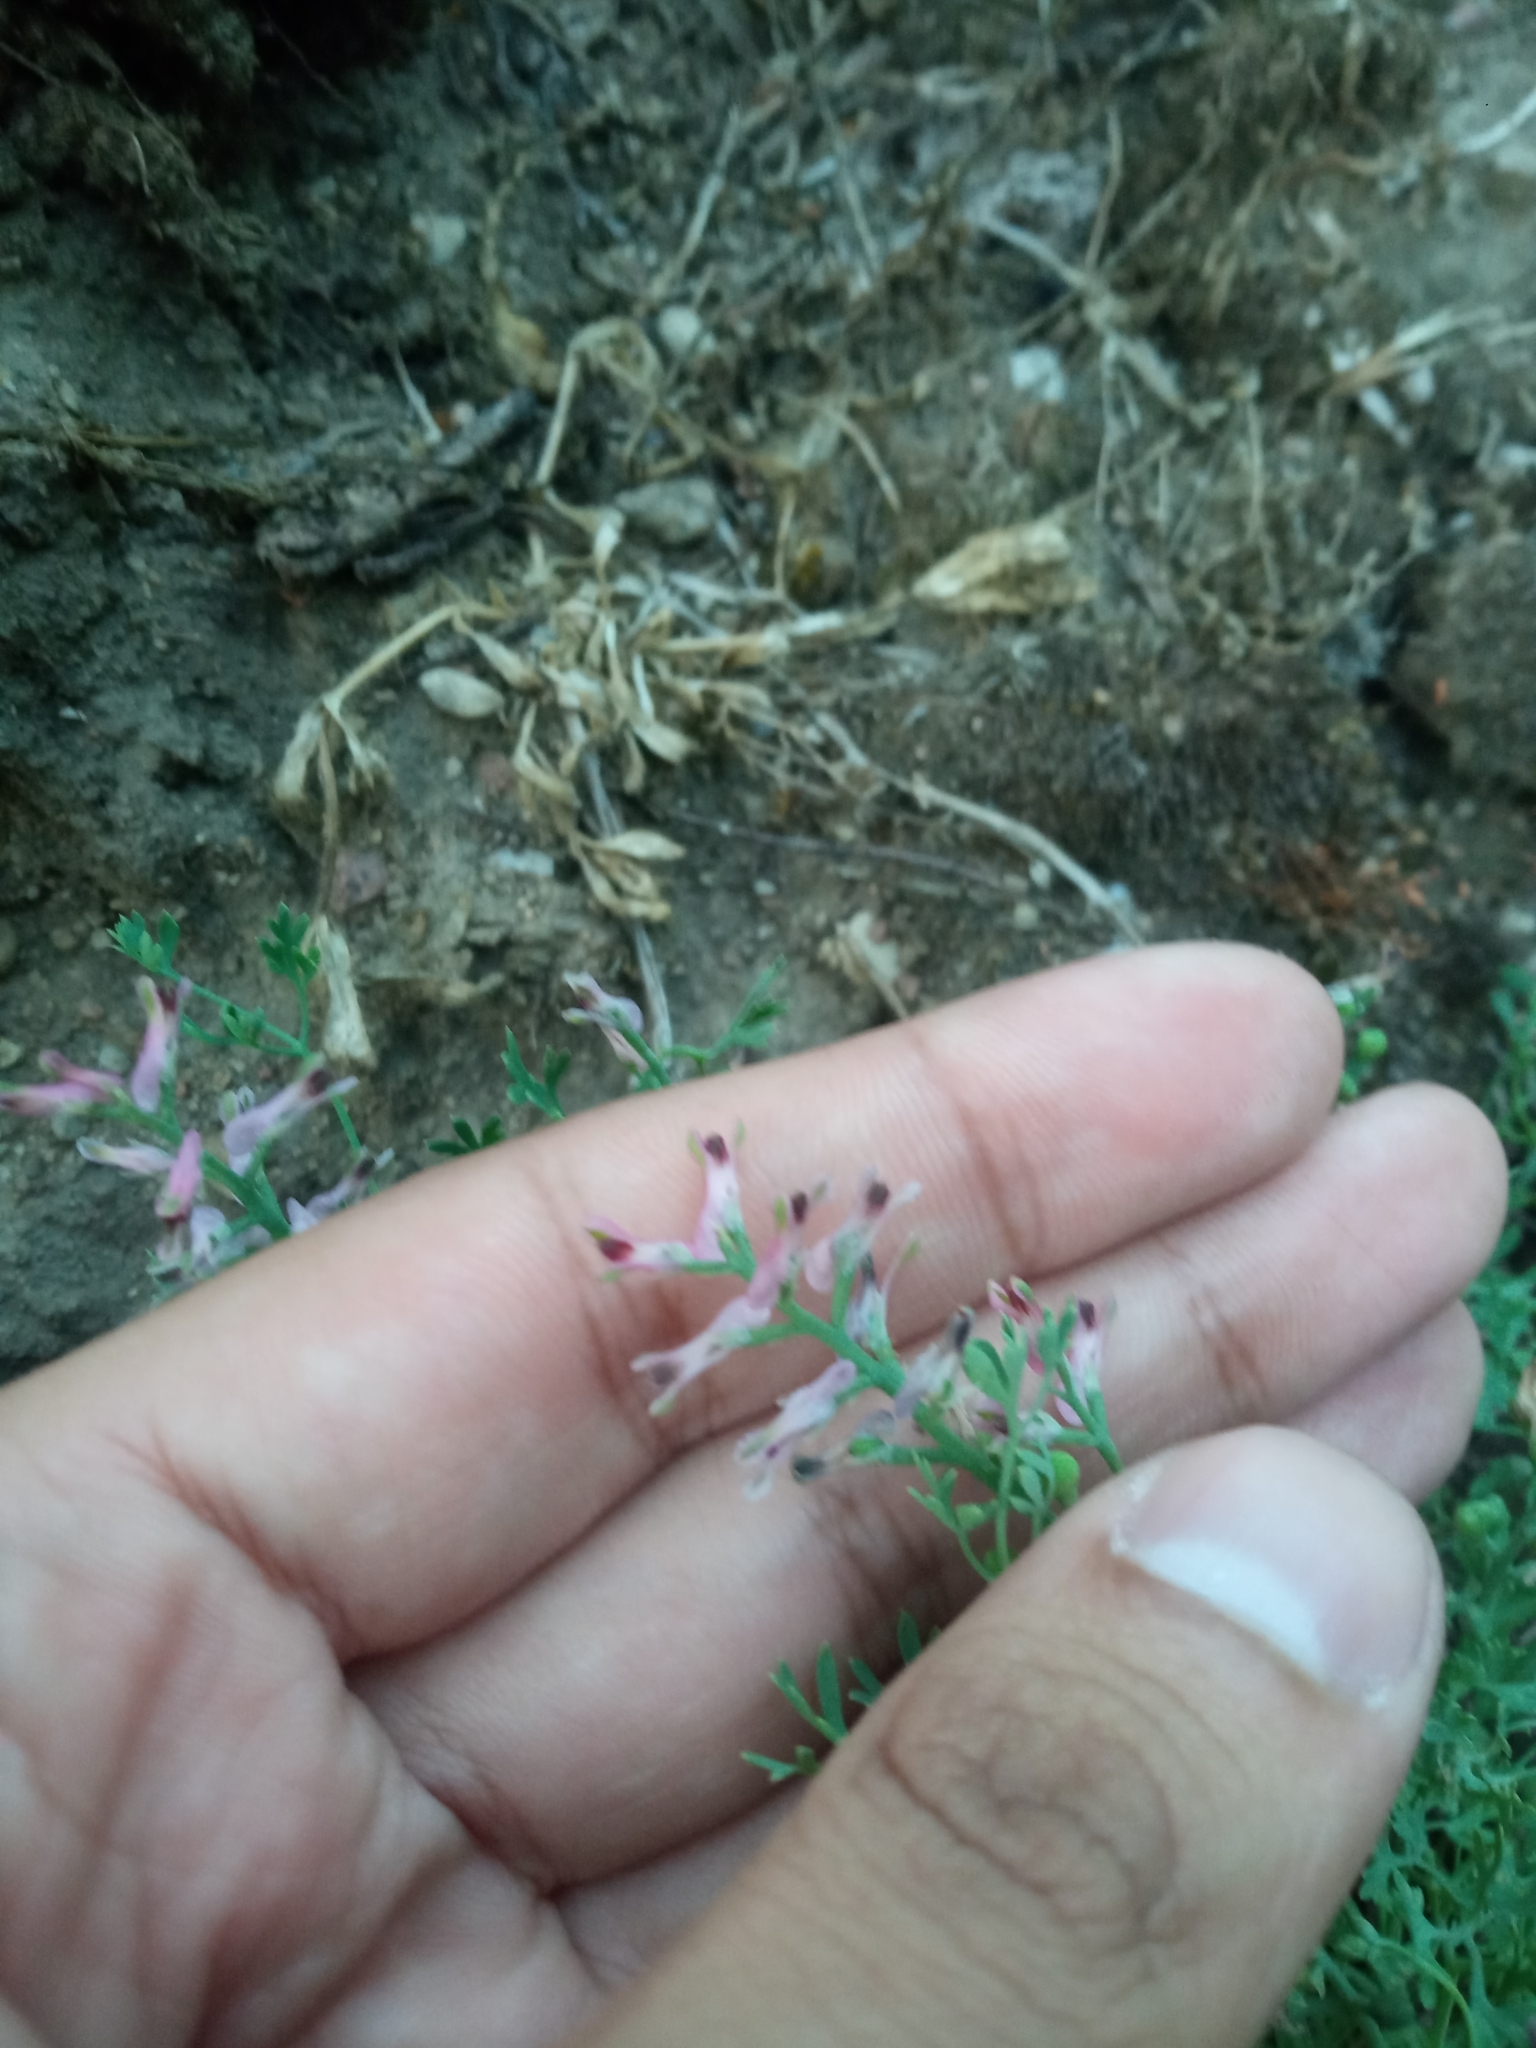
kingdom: Plantae
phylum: Tracheophyta
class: Magnoliopsida
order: Ranunculales
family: Papaveraceae
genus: Fumaria
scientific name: Fumaria officinalis
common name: Common fumitory
